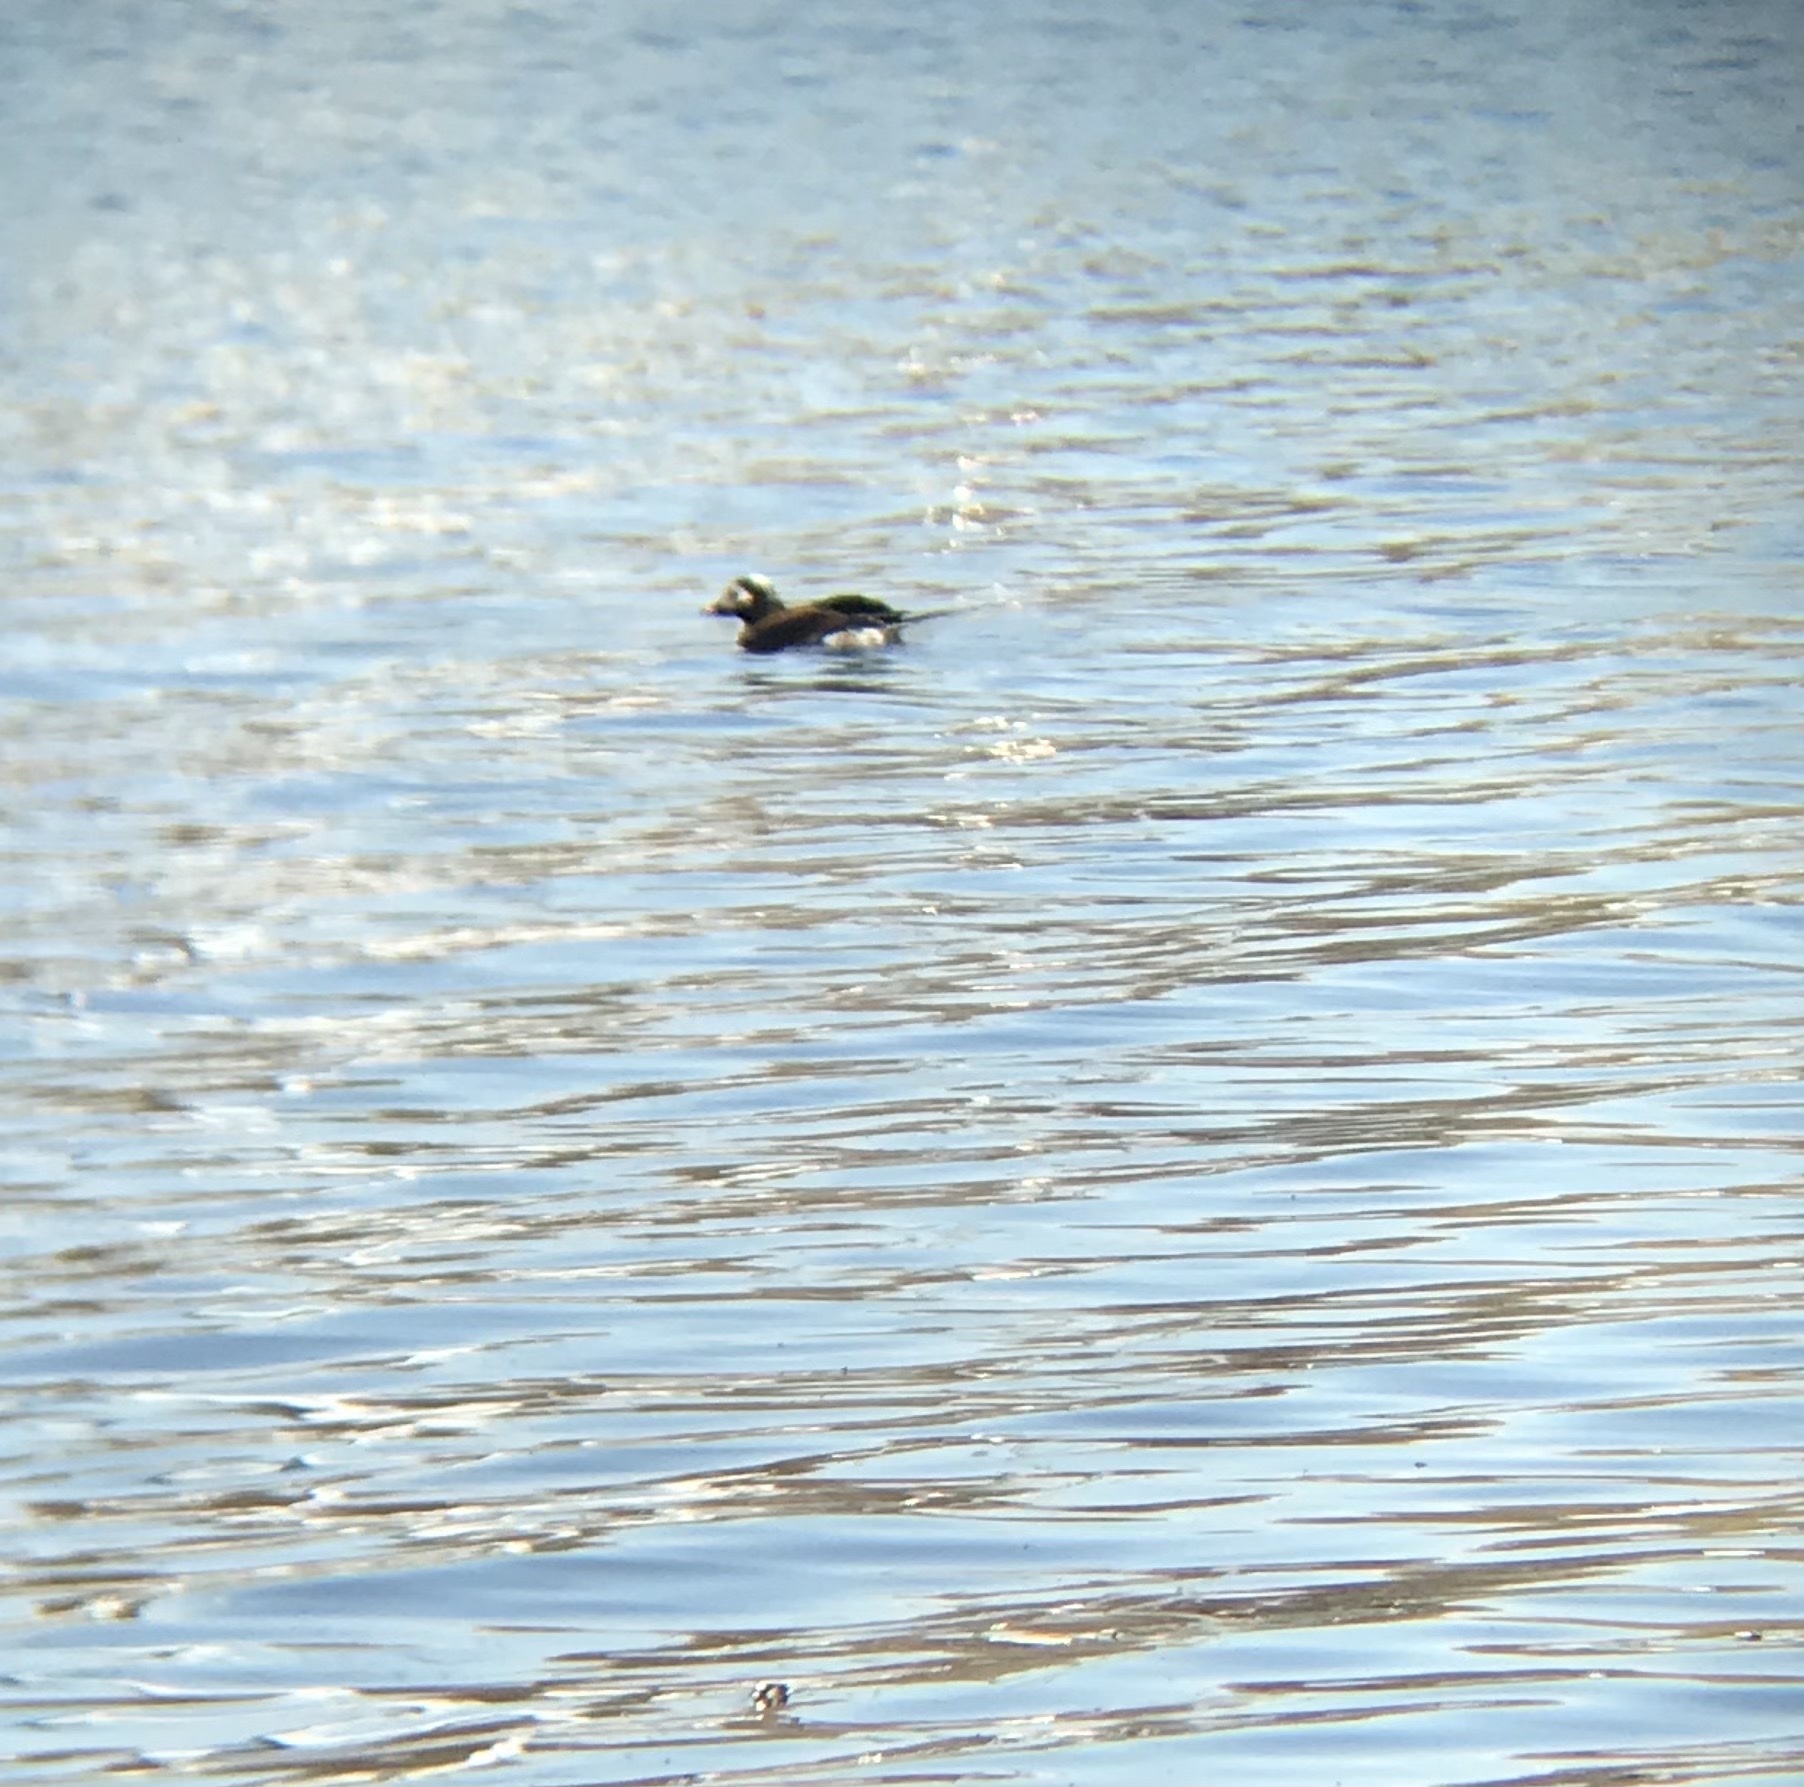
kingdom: Animalia
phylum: Chordata
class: Aves
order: Anseriformes
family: Anatidae
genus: Clangula
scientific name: Clangula hyemalis
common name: Long-tailed duck
